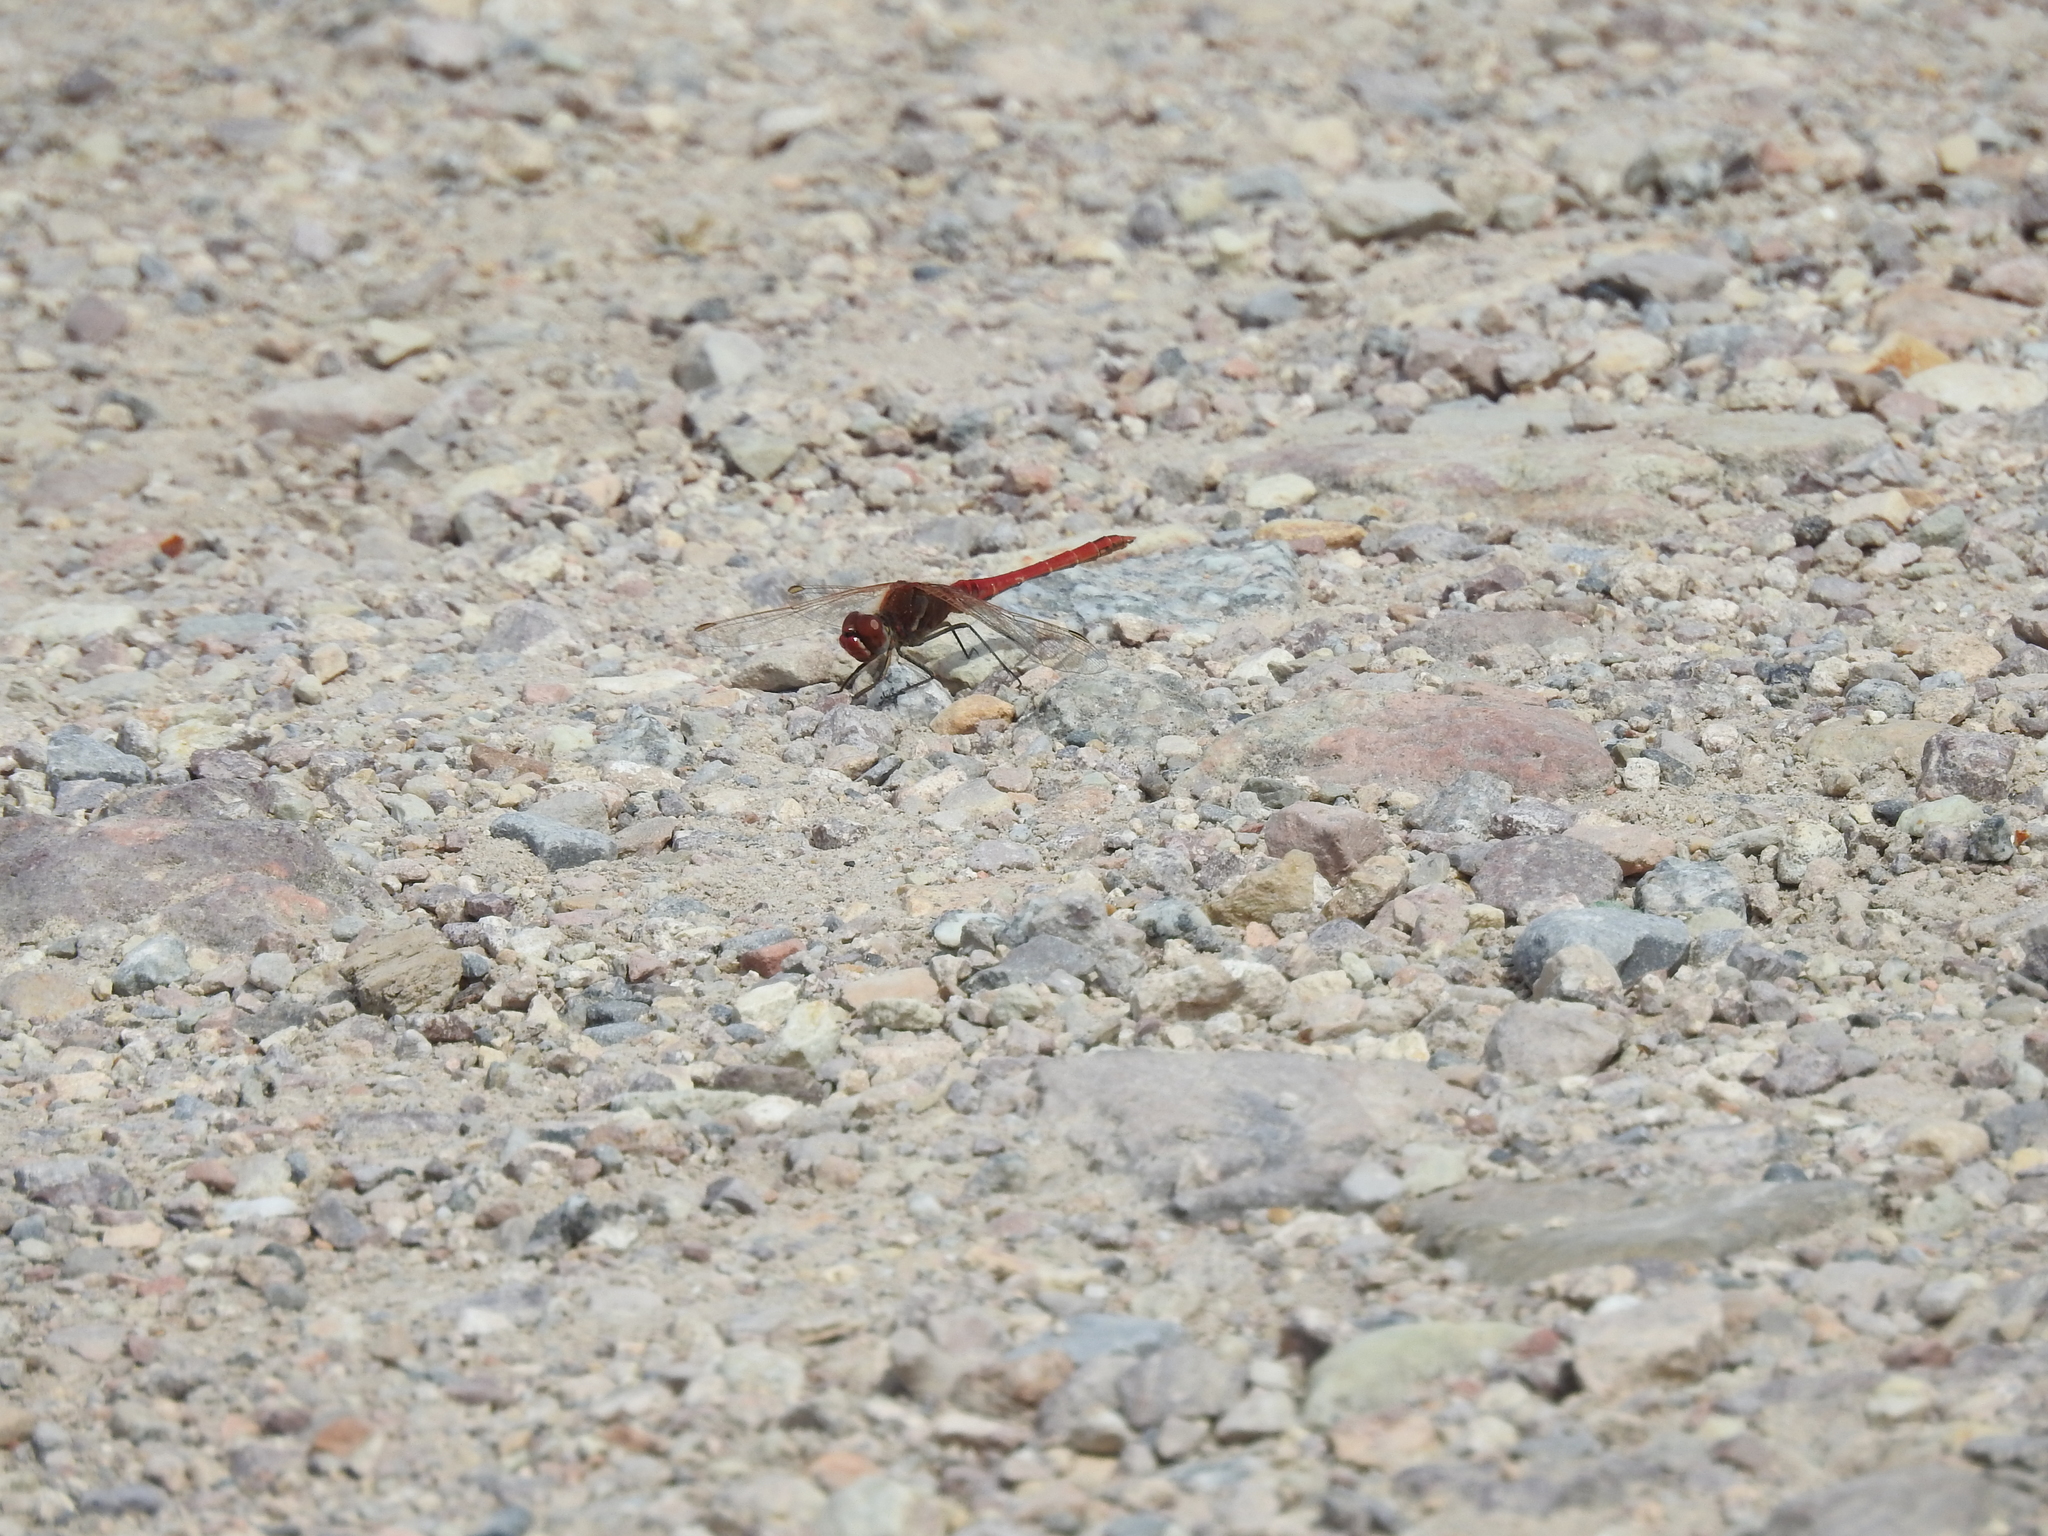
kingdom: Animalia
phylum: Arthropoda
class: Insecta
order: Odonata
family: Libellulidae
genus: Sympetrum
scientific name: Sympetrum fonscolombii
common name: Red-veined darter
